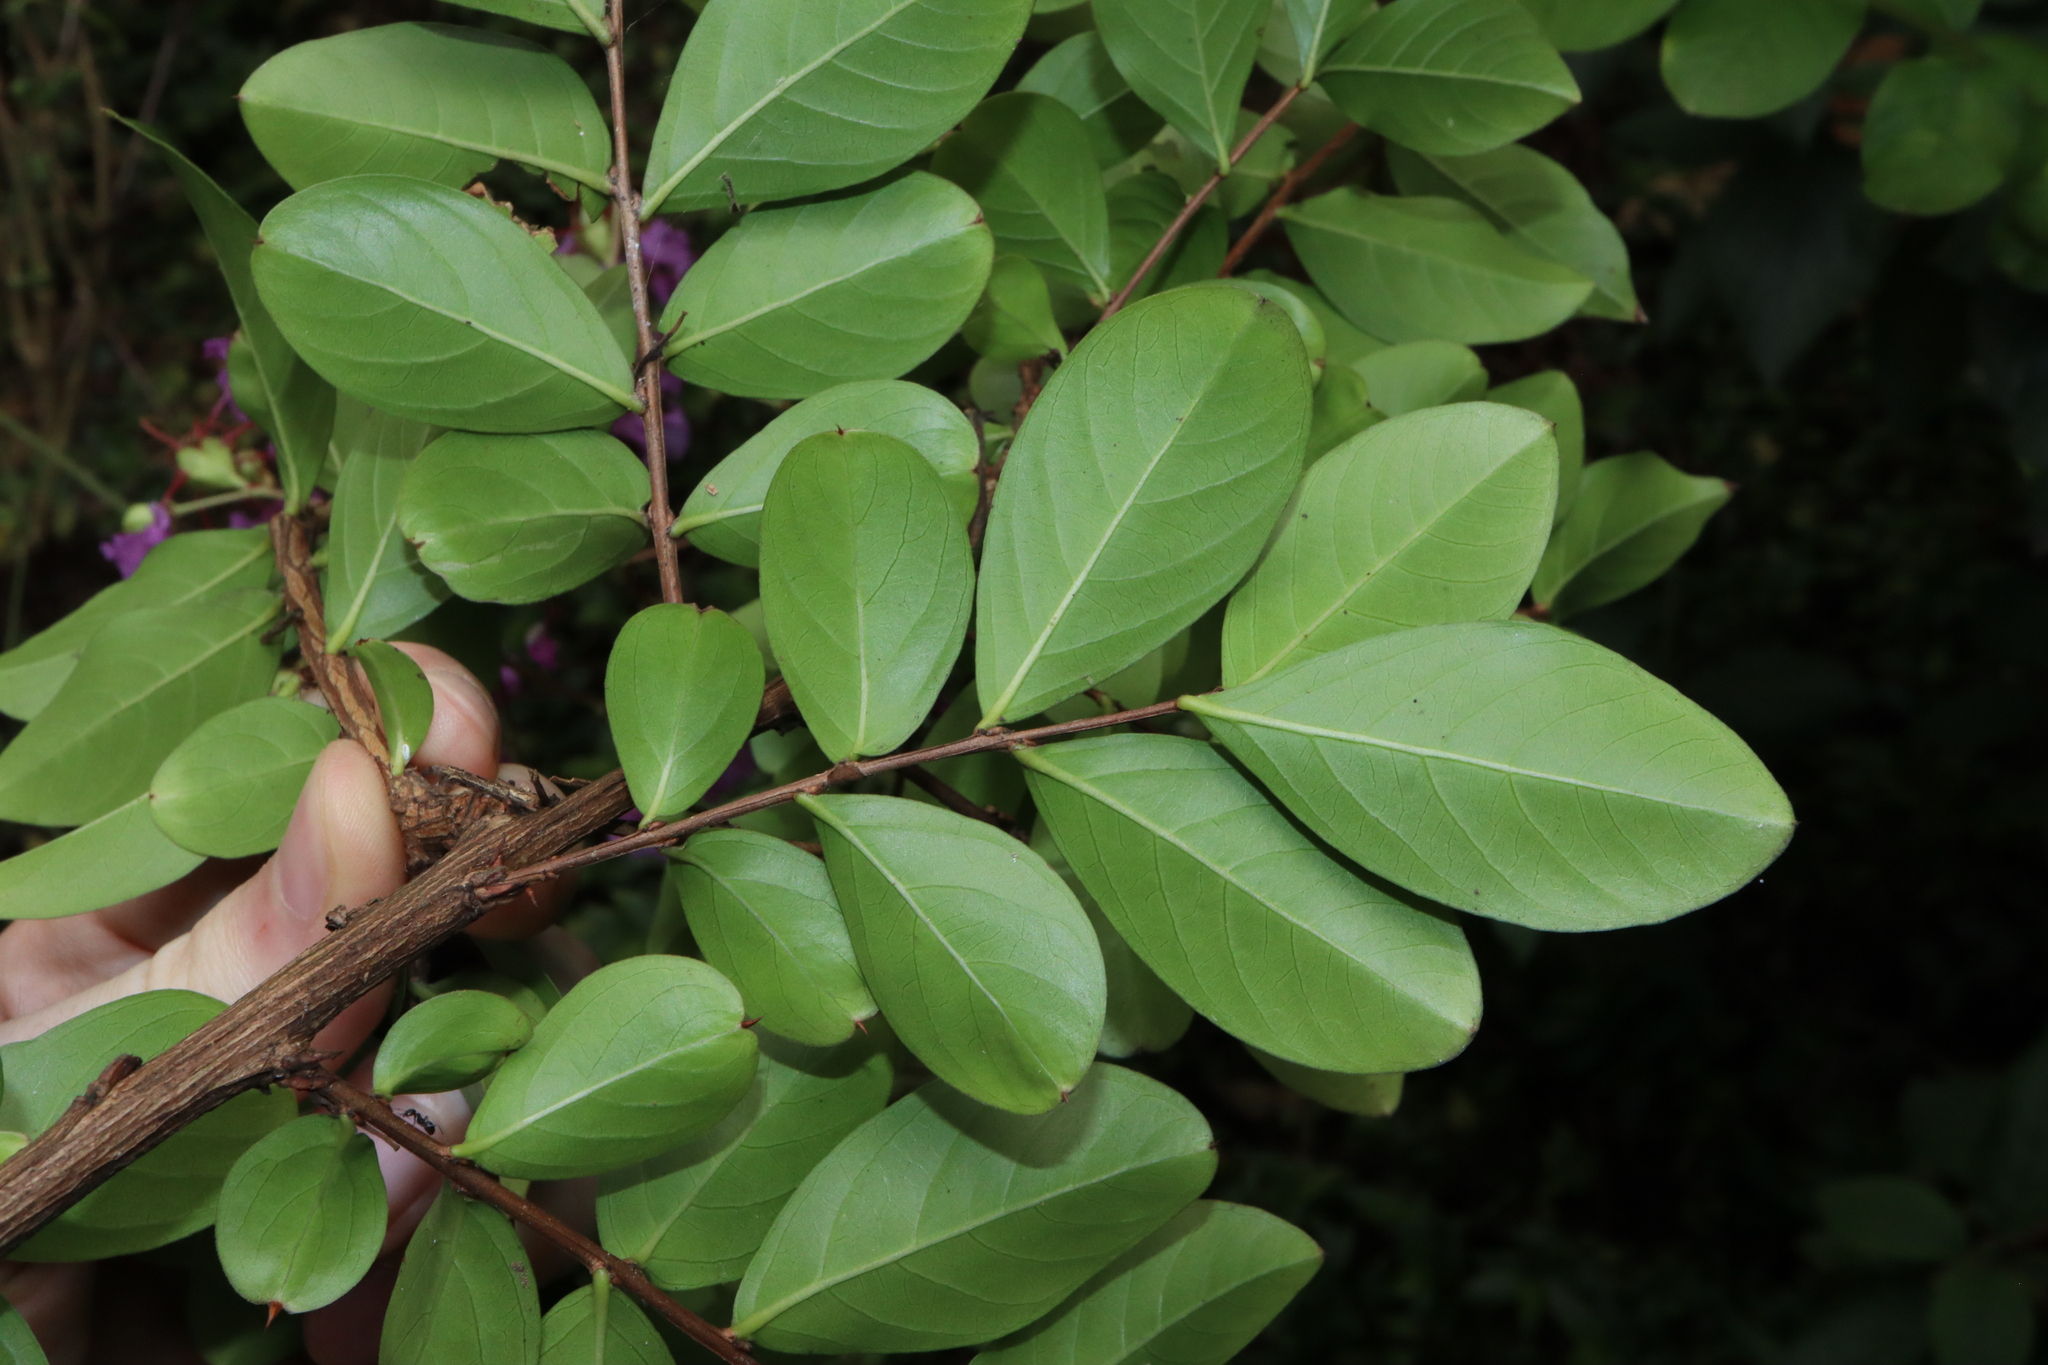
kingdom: Plantae
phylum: Tracheophyta
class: Magnoliopsida
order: Myrtales
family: Lythraceae
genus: Lagerstroemia
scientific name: Lagerstroemia indica
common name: Crape-myrtle
